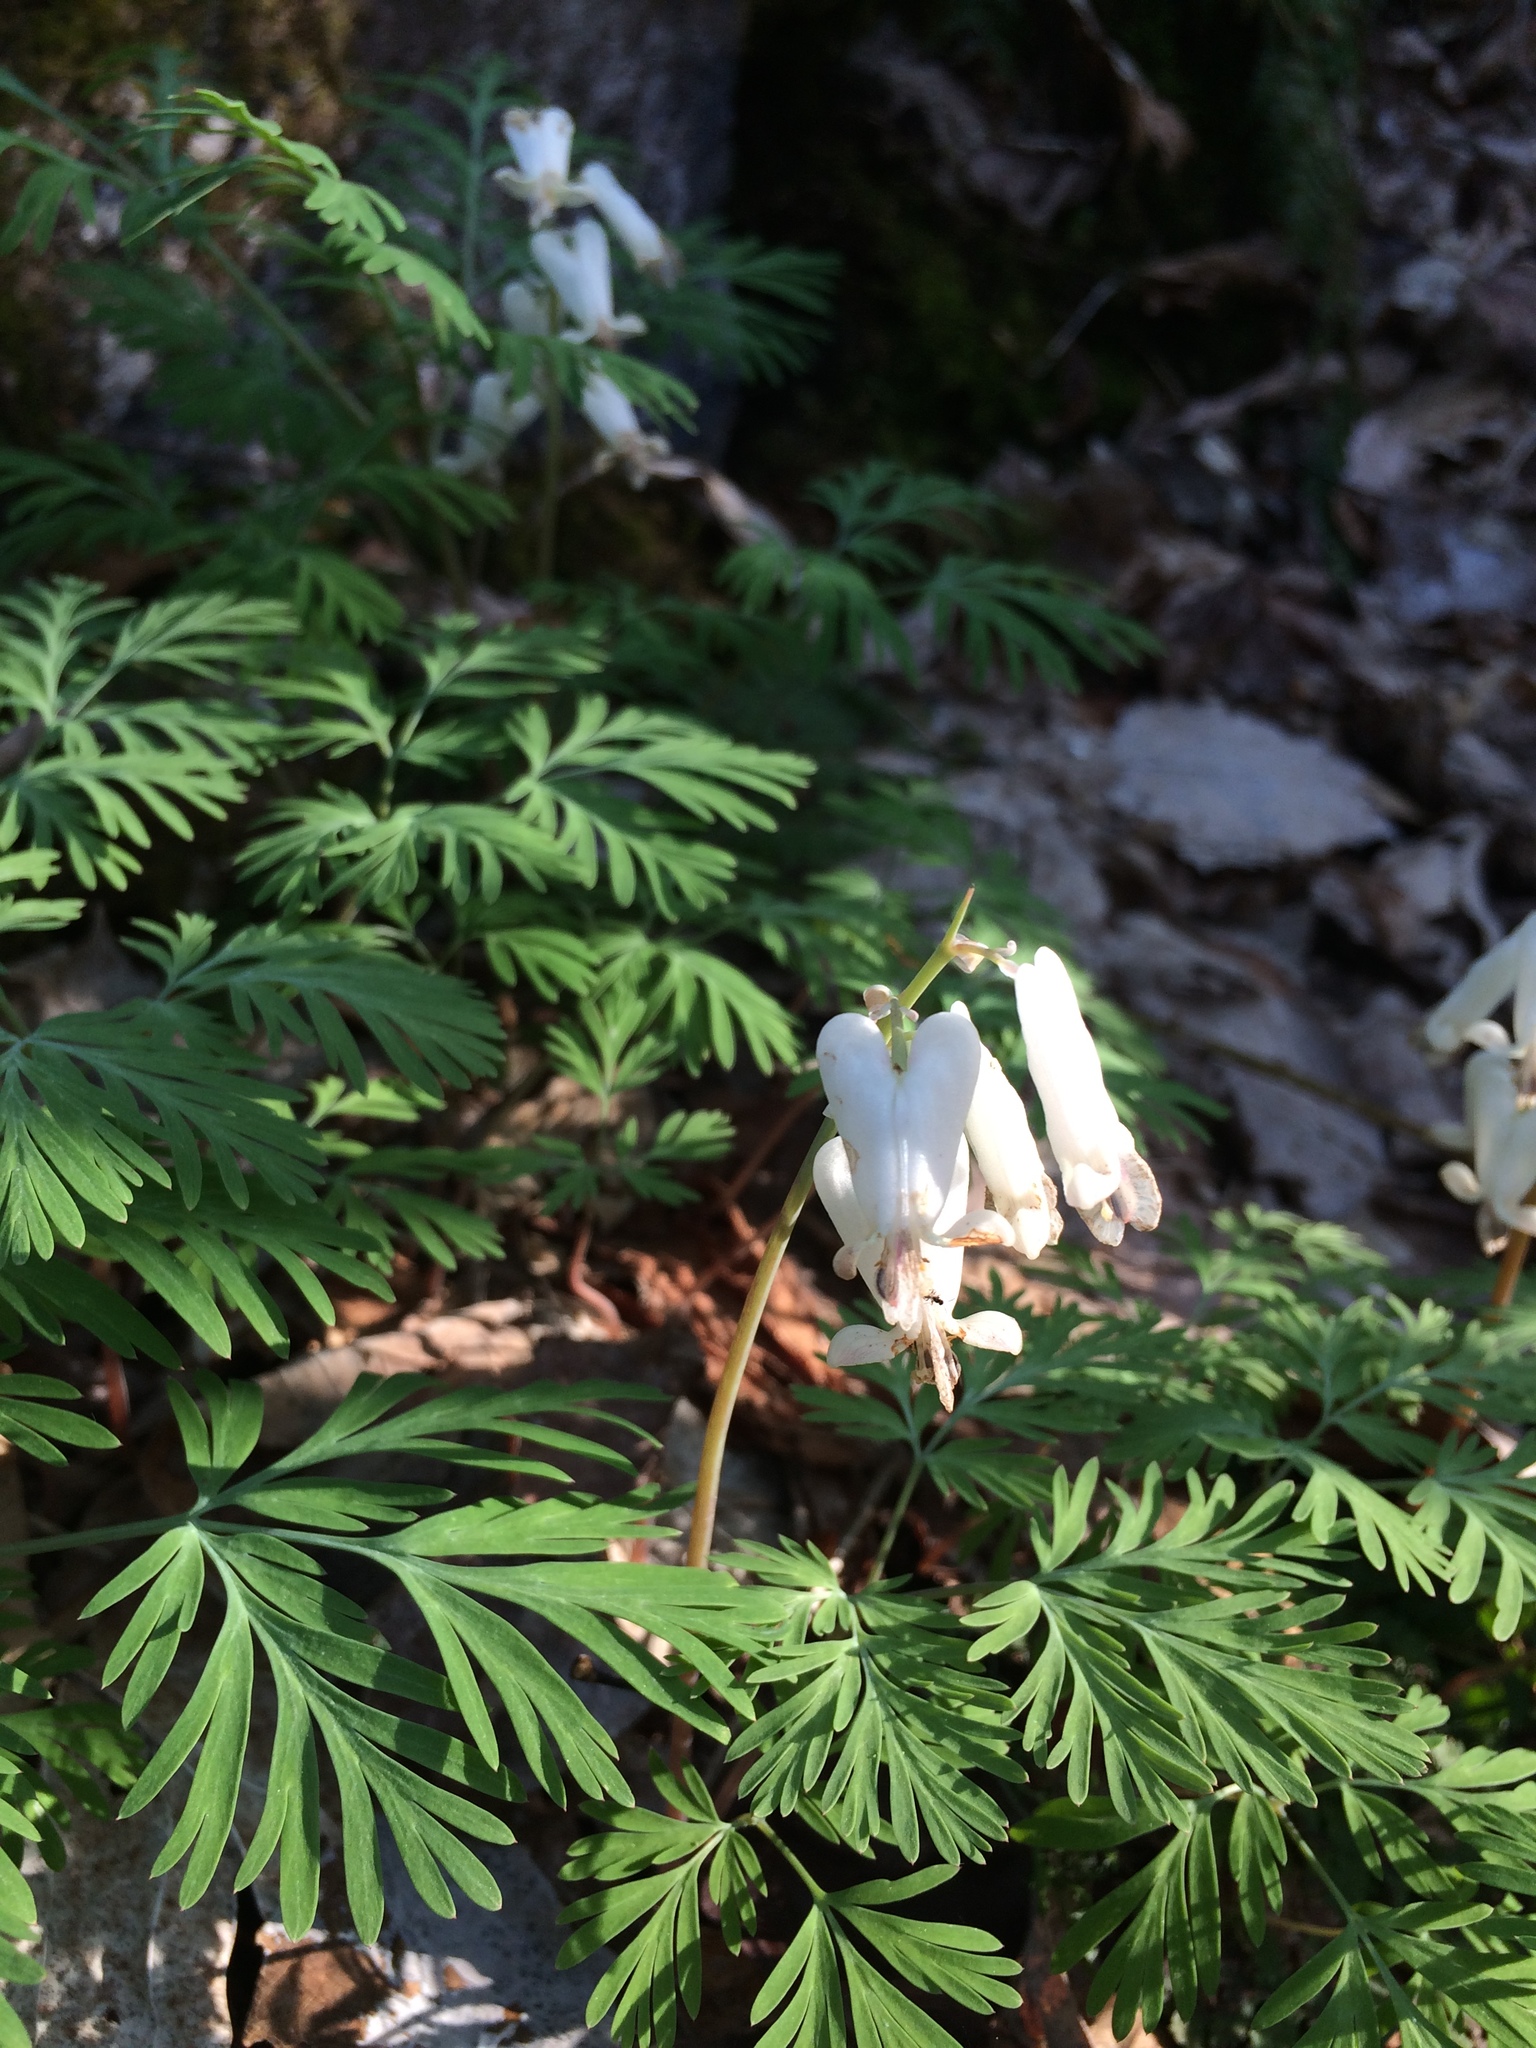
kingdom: Plantae
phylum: Tracheophyta
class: Magnoliopsida
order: Ranunculales
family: Papaveraceae
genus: Dicentra
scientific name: Dicentra canadensis
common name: Squirrel-corn
